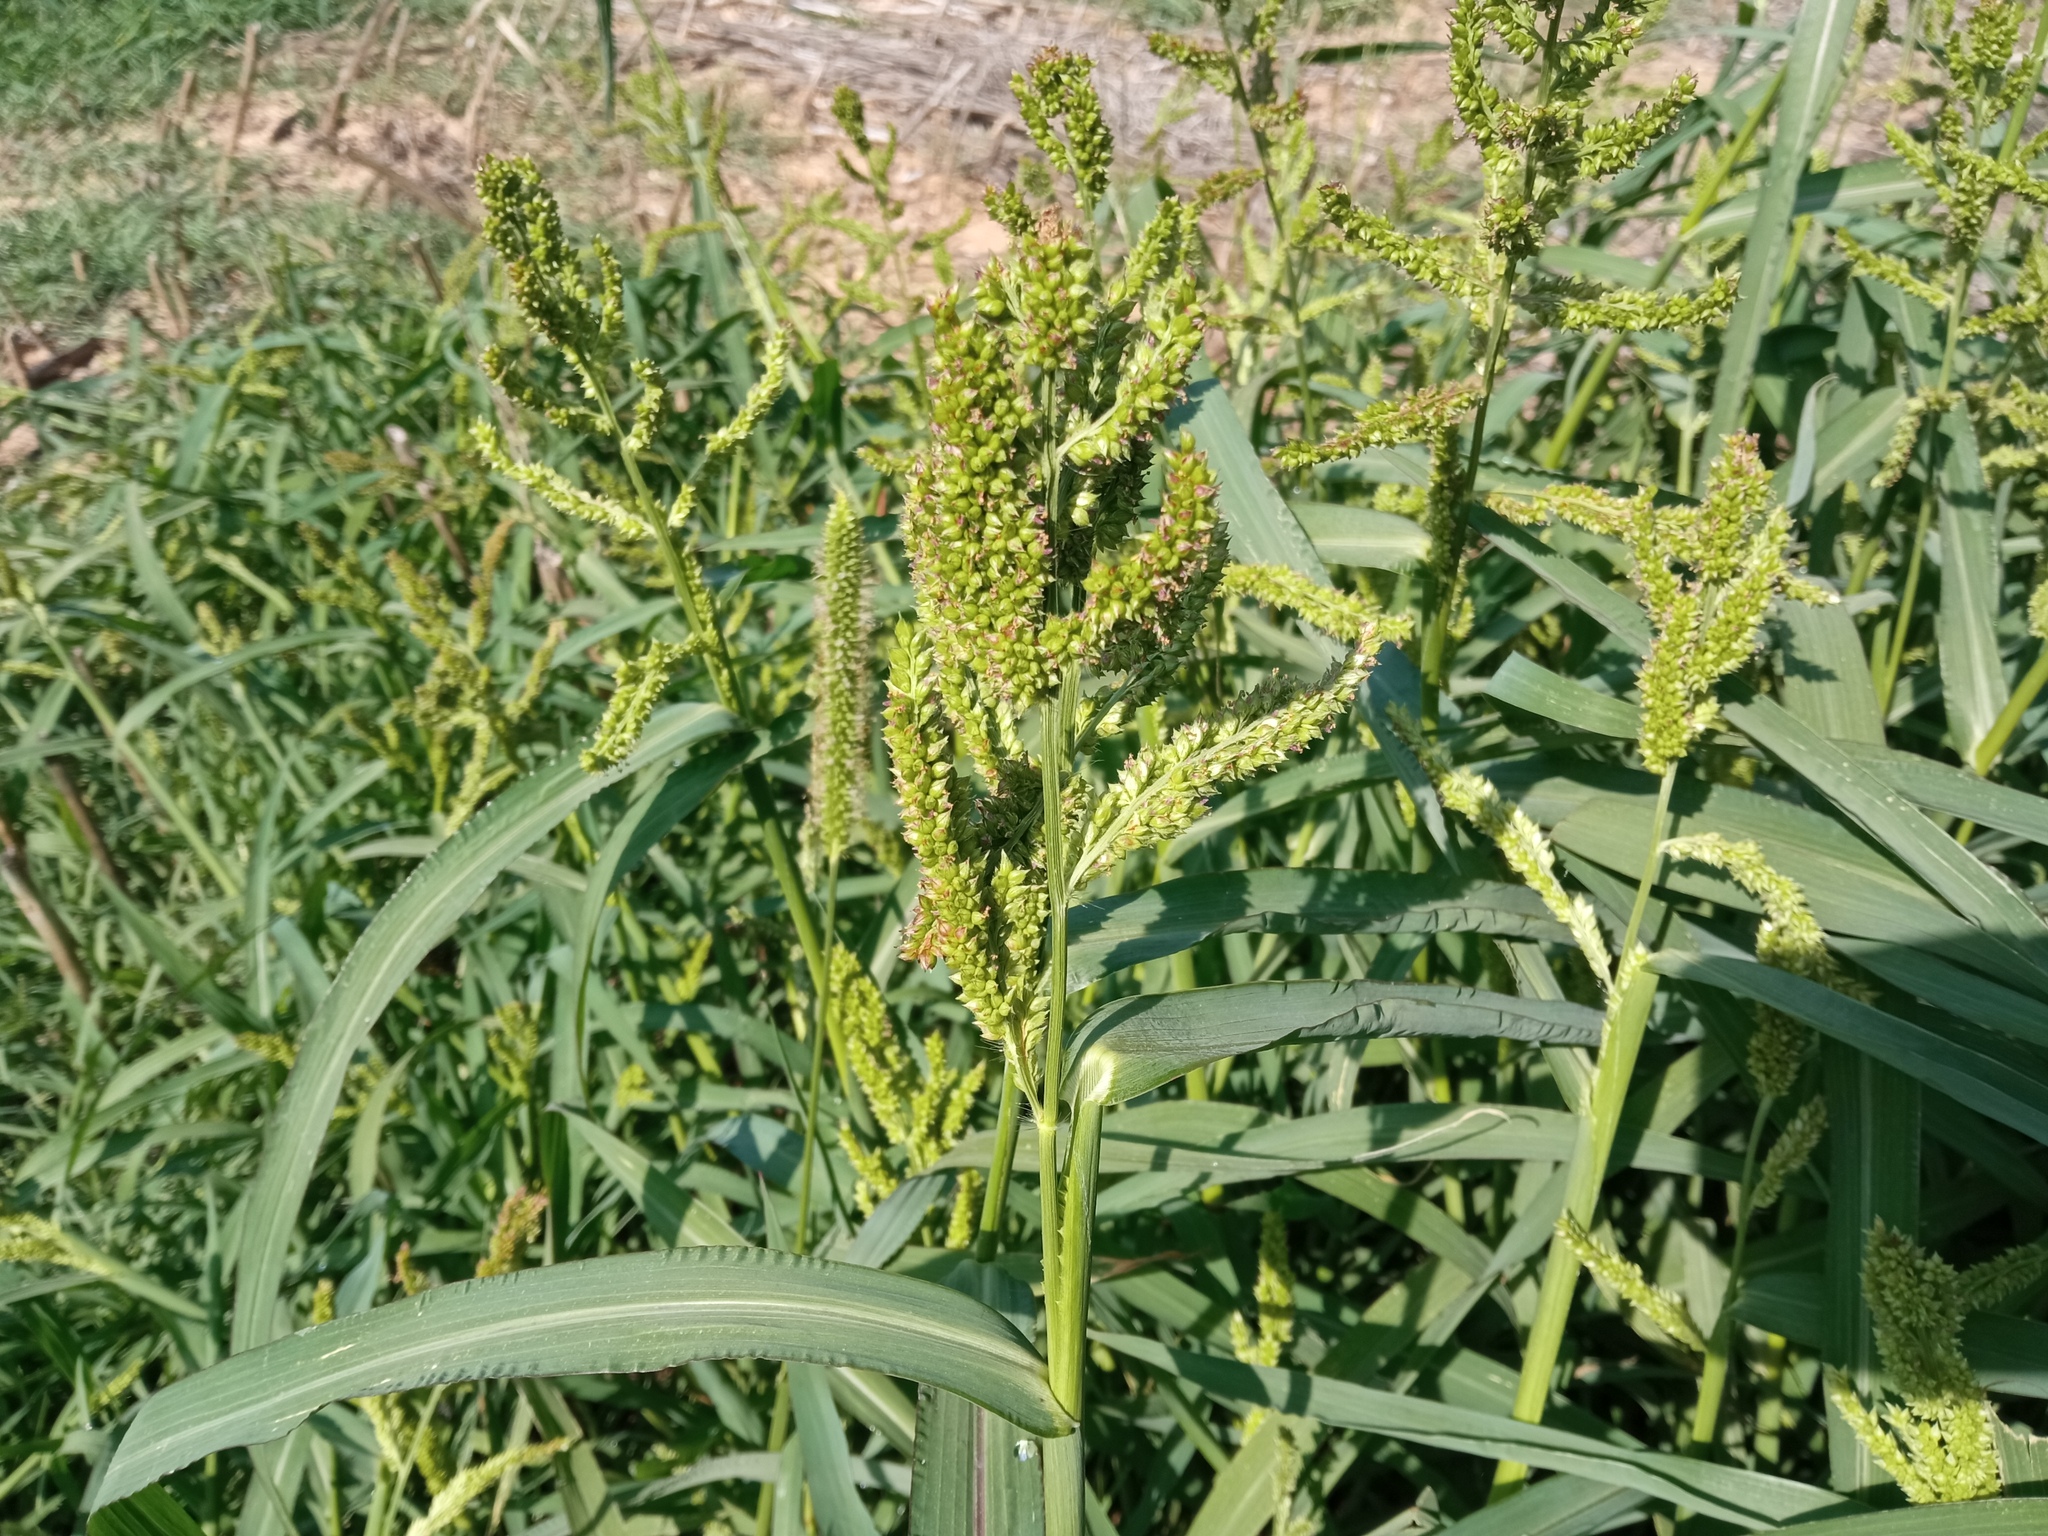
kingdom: Plantae
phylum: Tracheophyta
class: Liliopsida
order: Poales
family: Poaceae
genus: Echinochloa
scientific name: Echinochloa crus-galli
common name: Cockspur
